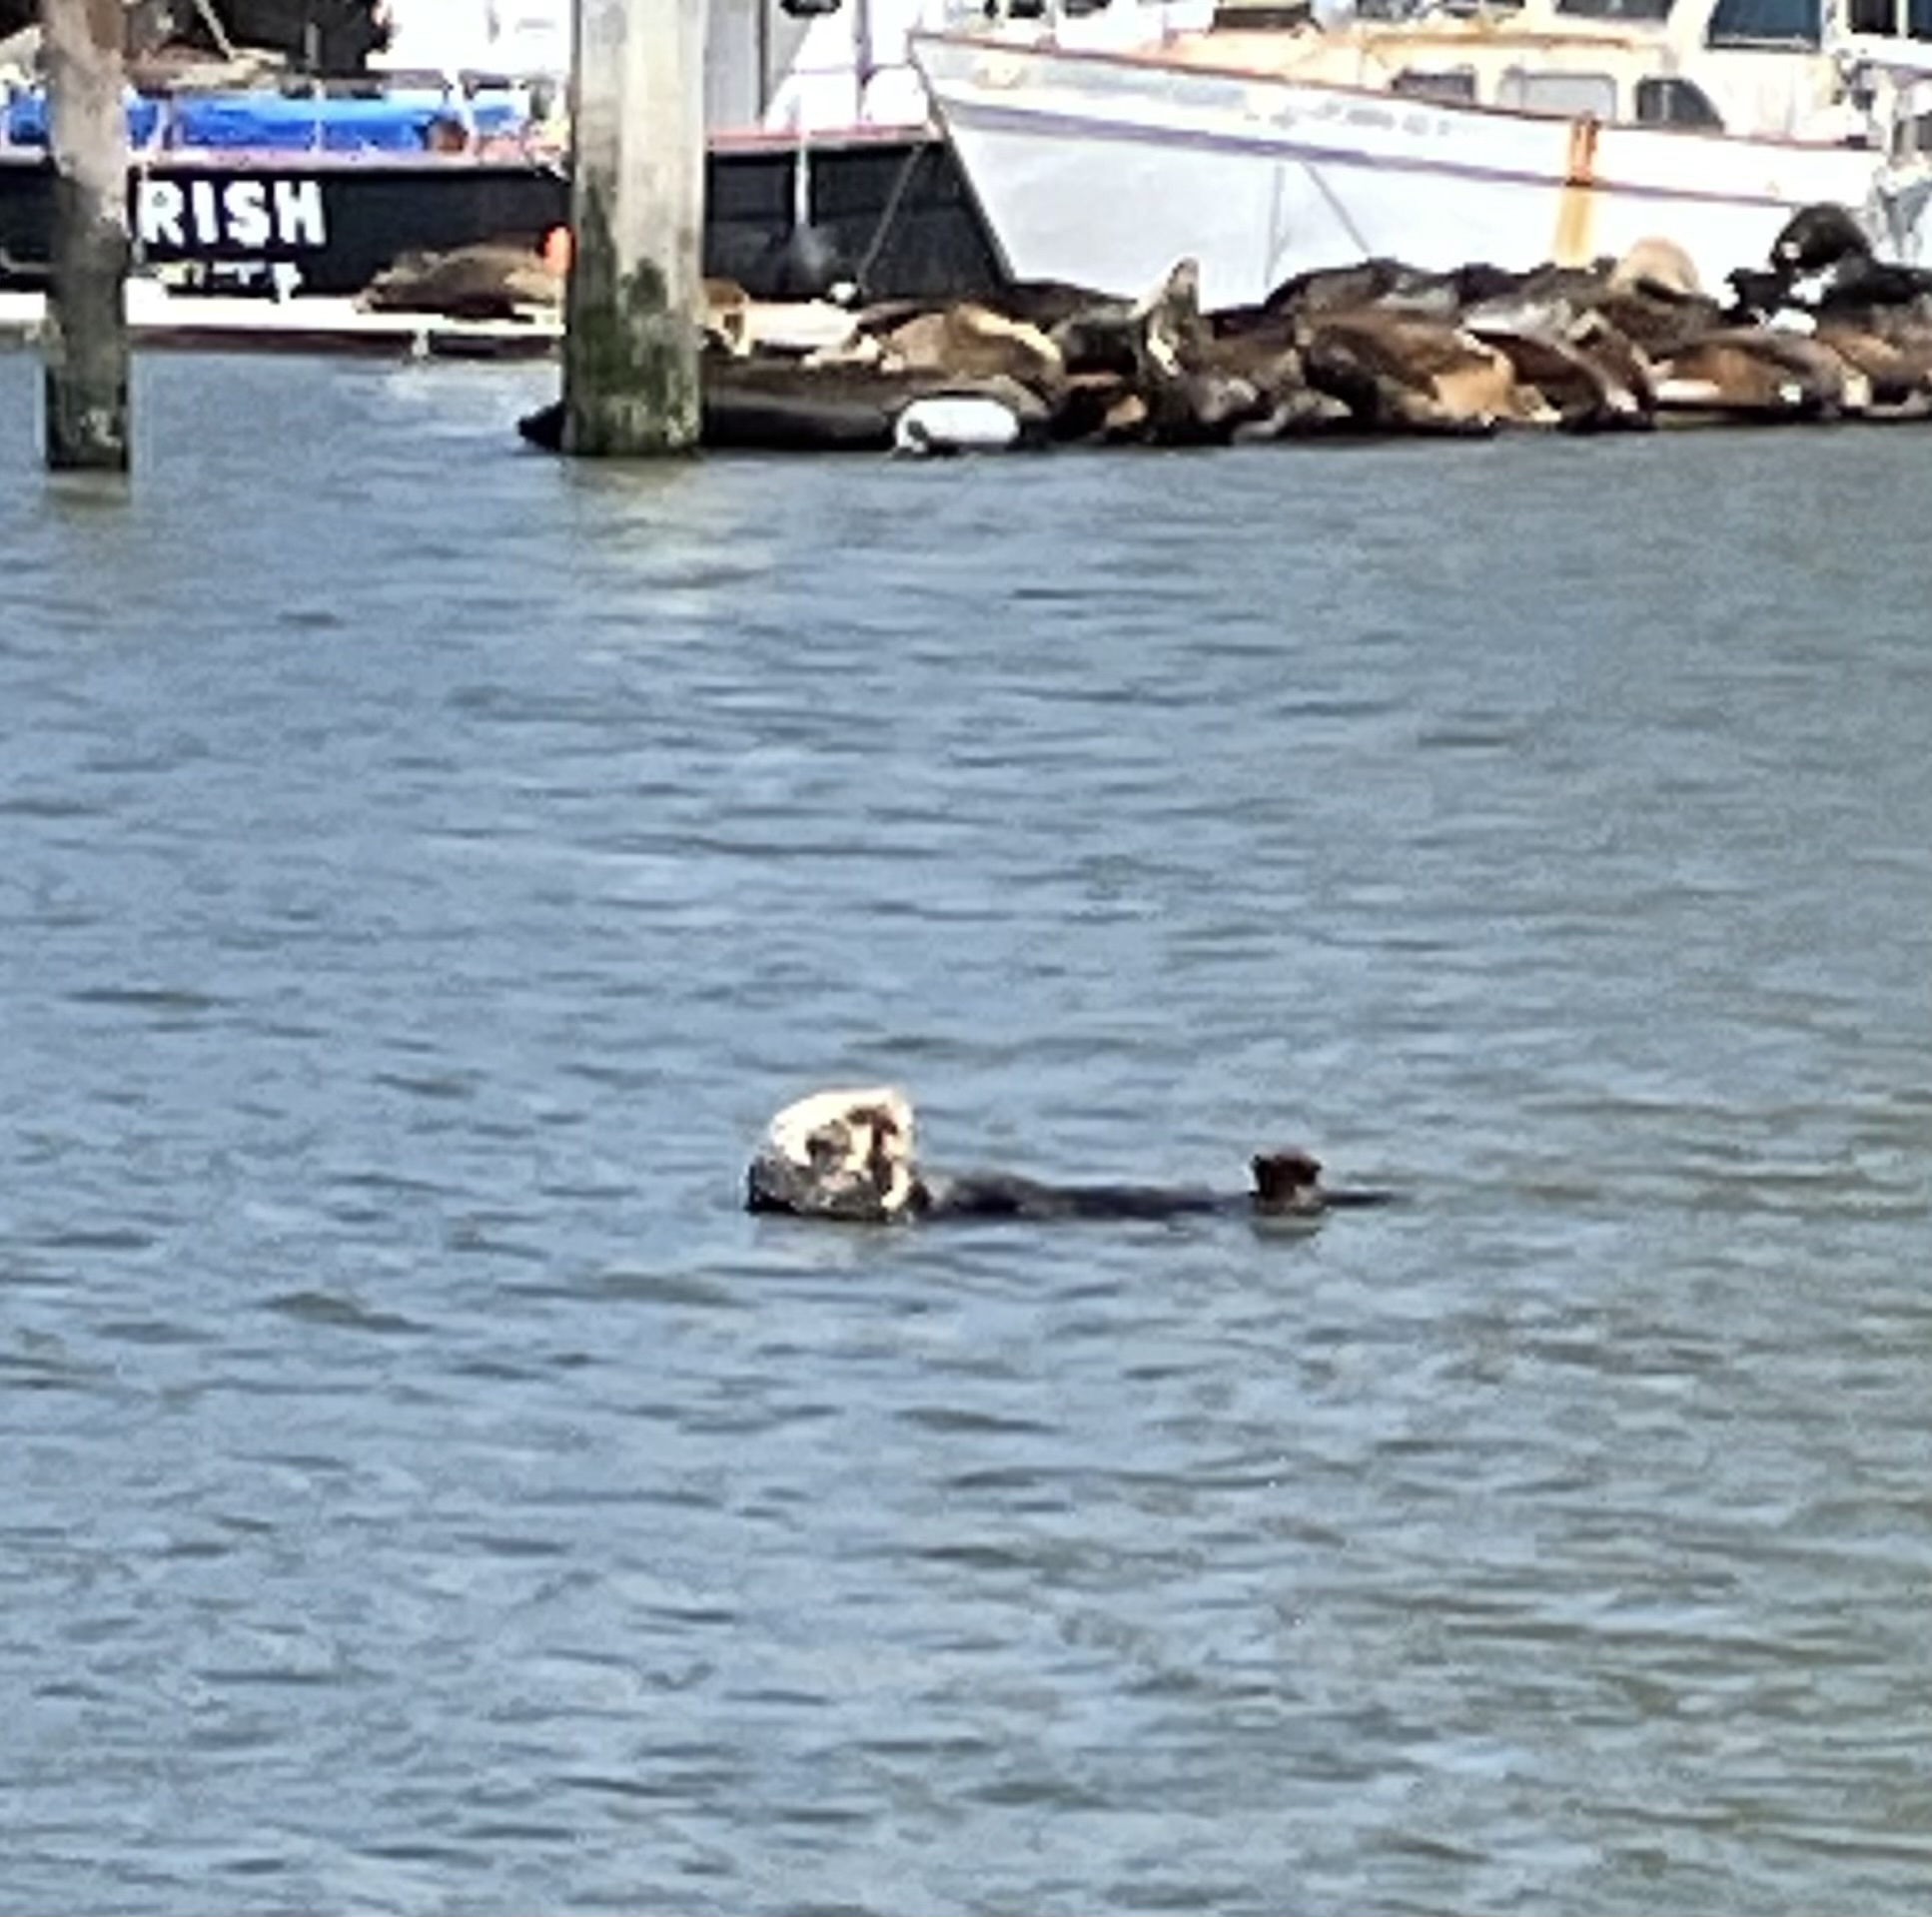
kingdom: Animalia
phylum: Chordata
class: Mammalia
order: Carnivora
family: Mustelidae
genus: Enhydra
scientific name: Enhydra lutris
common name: Sea otter
